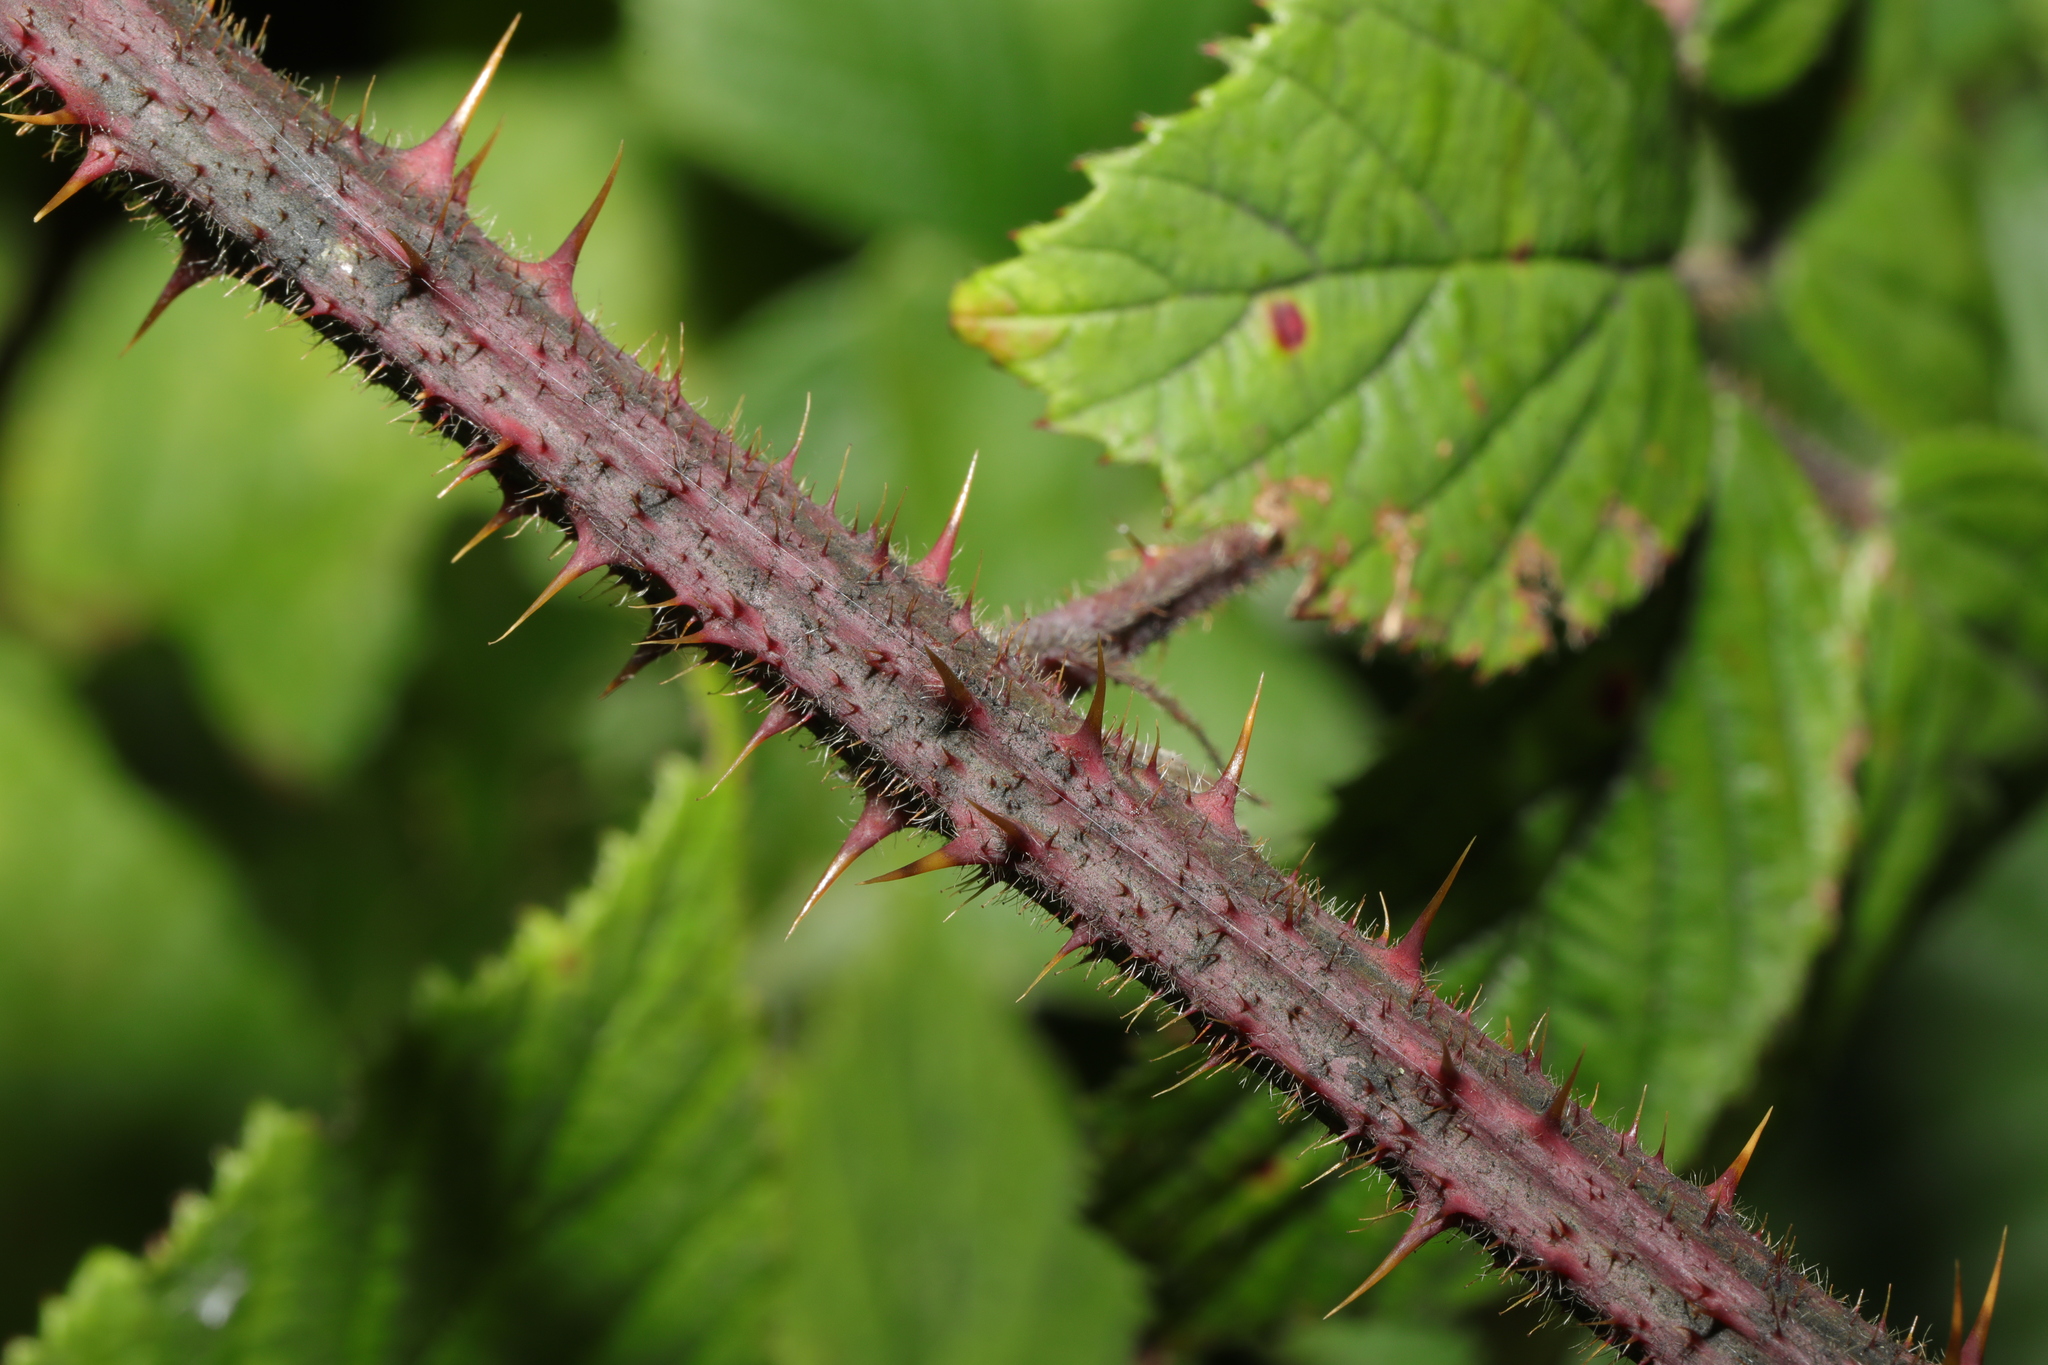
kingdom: Plantae
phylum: Tracheophyta
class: Magnoliopsida
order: Rosales
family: Rosaceae
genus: Rubus
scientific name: Rubus dasyphyllus
